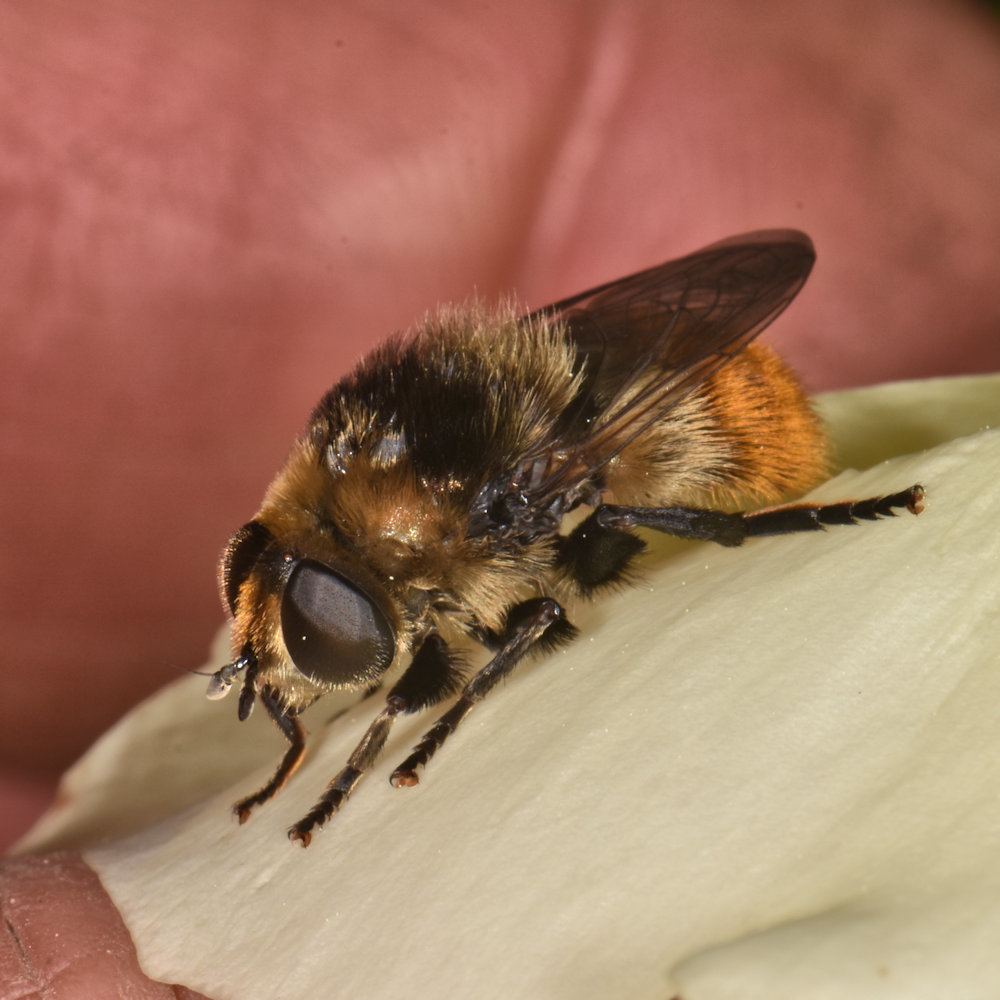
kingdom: Animalia
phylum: Arthropoda
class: Insecta
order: Diptera
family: Syrphidae
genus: Merodon
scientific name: Merodon equestris
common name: Greater bulb-fly
